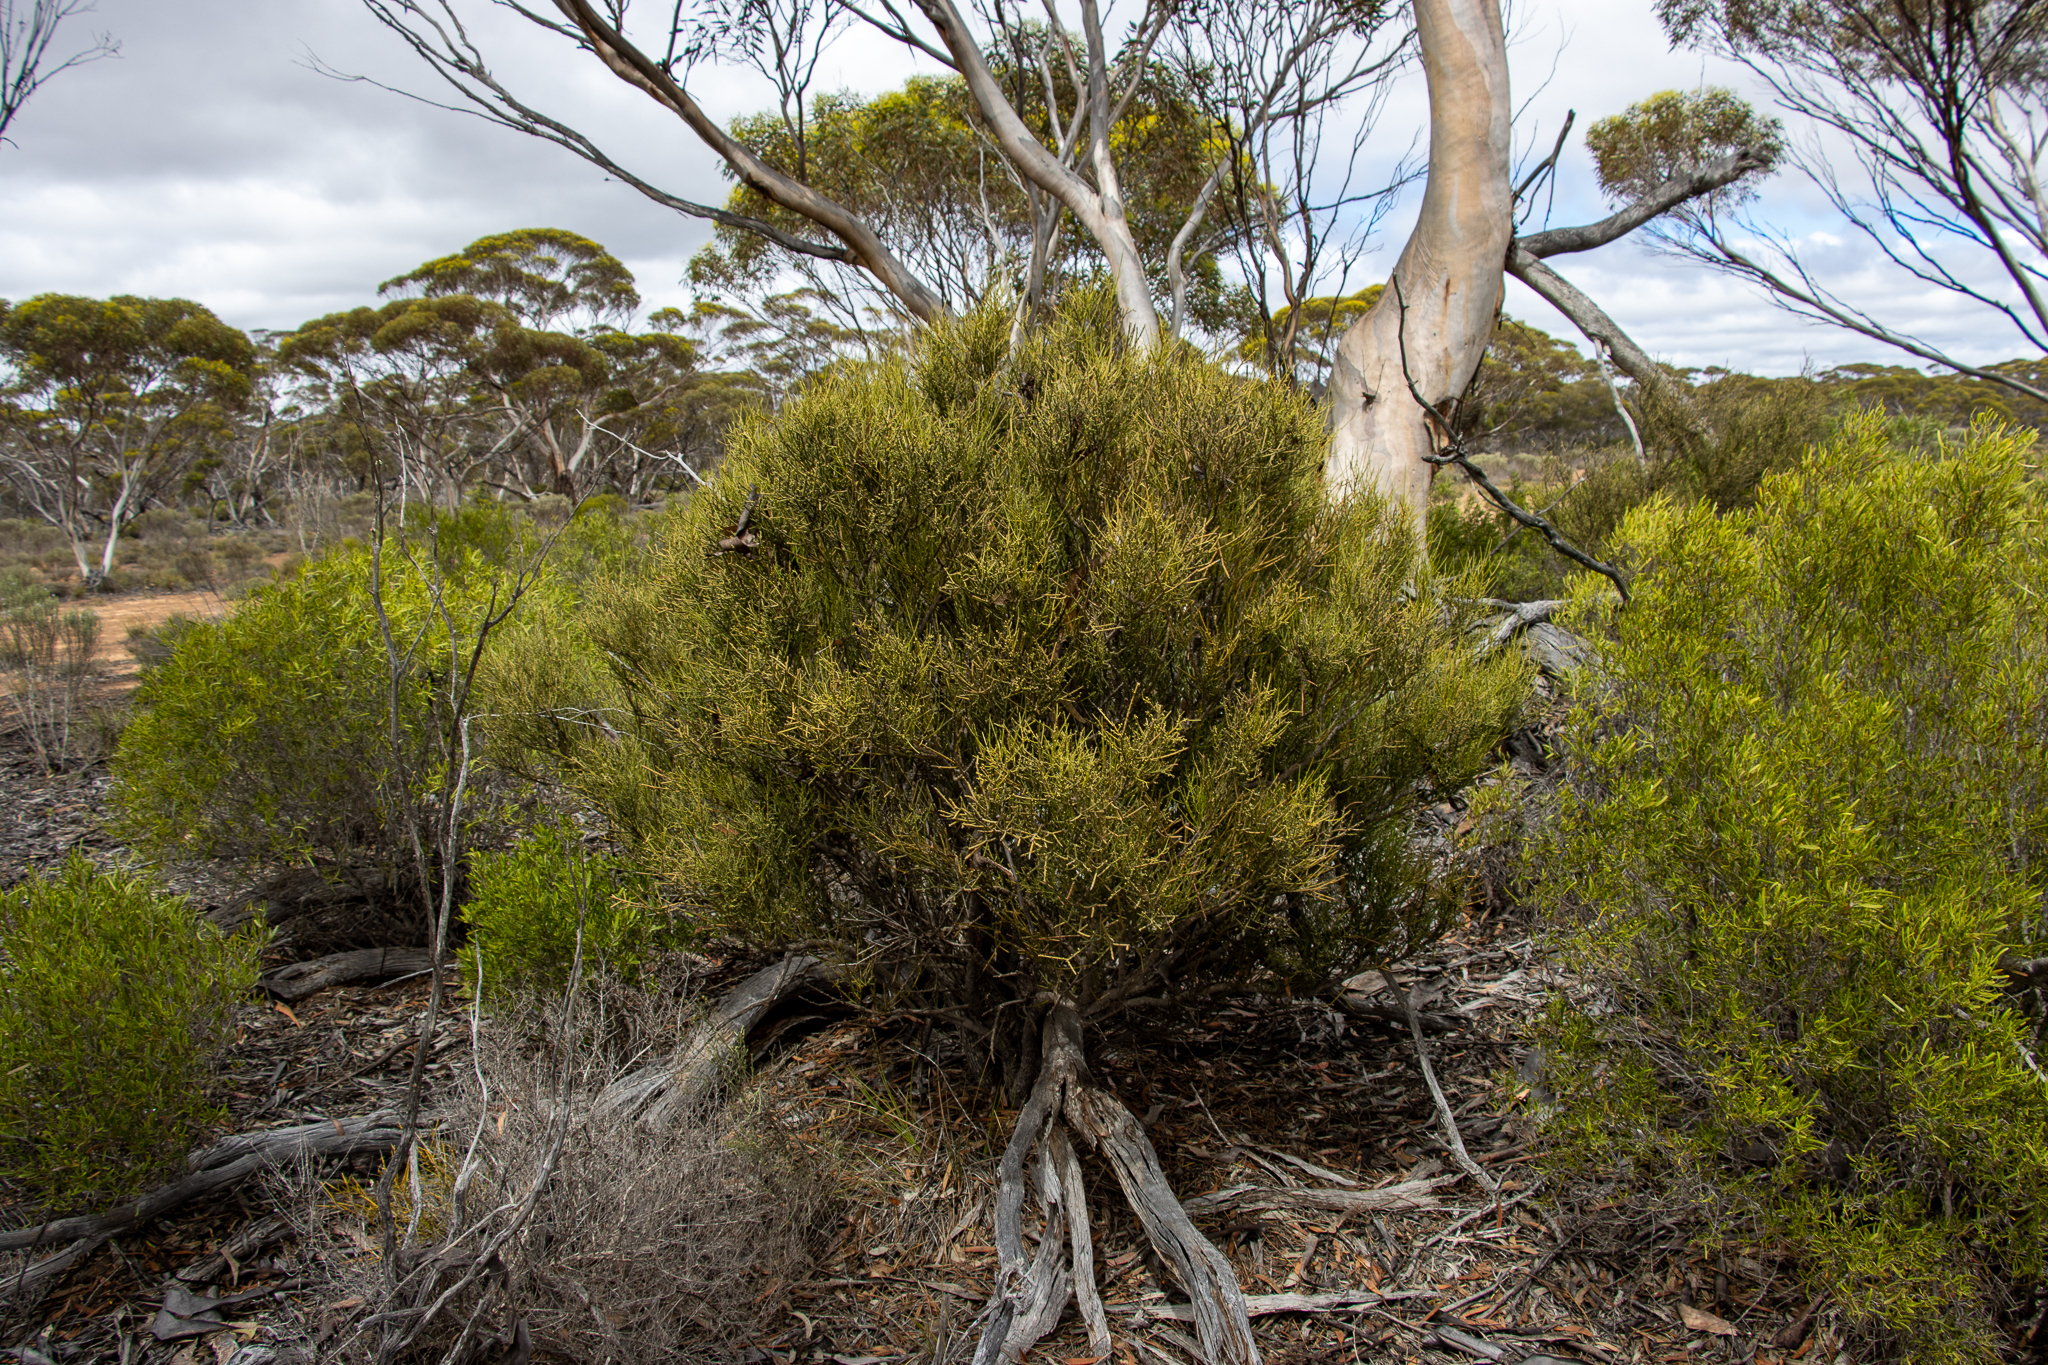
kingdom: Plantae
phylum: Tracheophyta
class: Magnoliopsida
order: Santalales
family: Santalaceae
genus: Exocarpos
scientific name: Exocarpos aphyllus
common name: Leafless ballart
